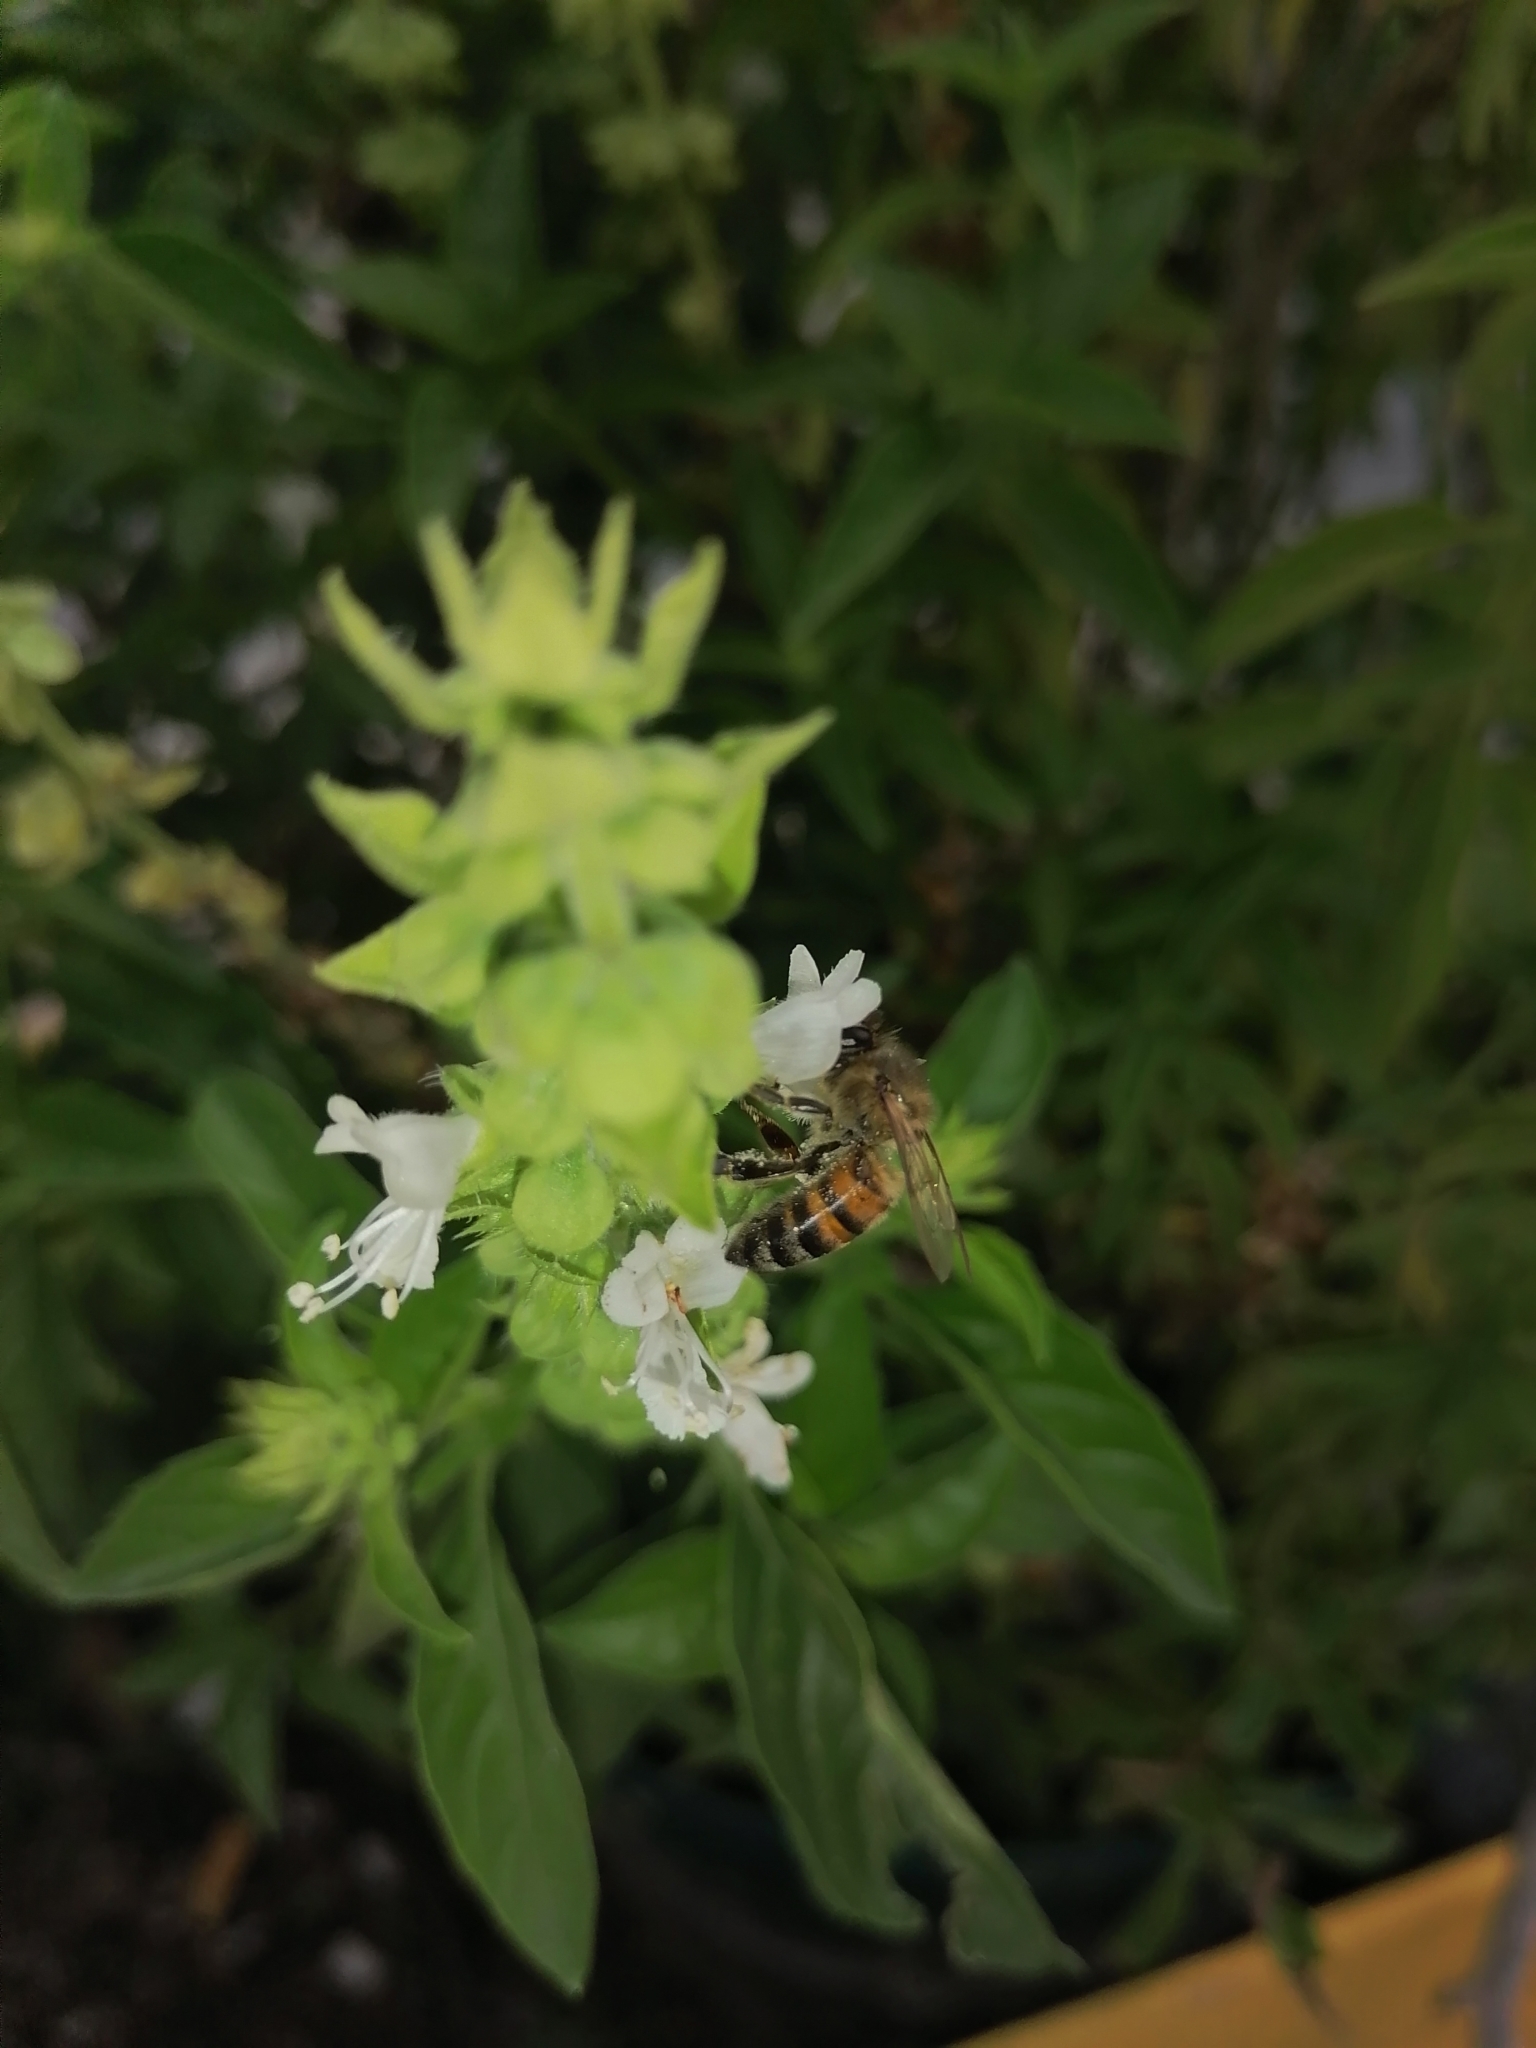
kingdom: Animalia
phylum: Arthropoda
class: Insecta
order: Hymenoptera
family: Apidae
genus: Apis
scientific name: Apis mellifera
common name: Honey bee
